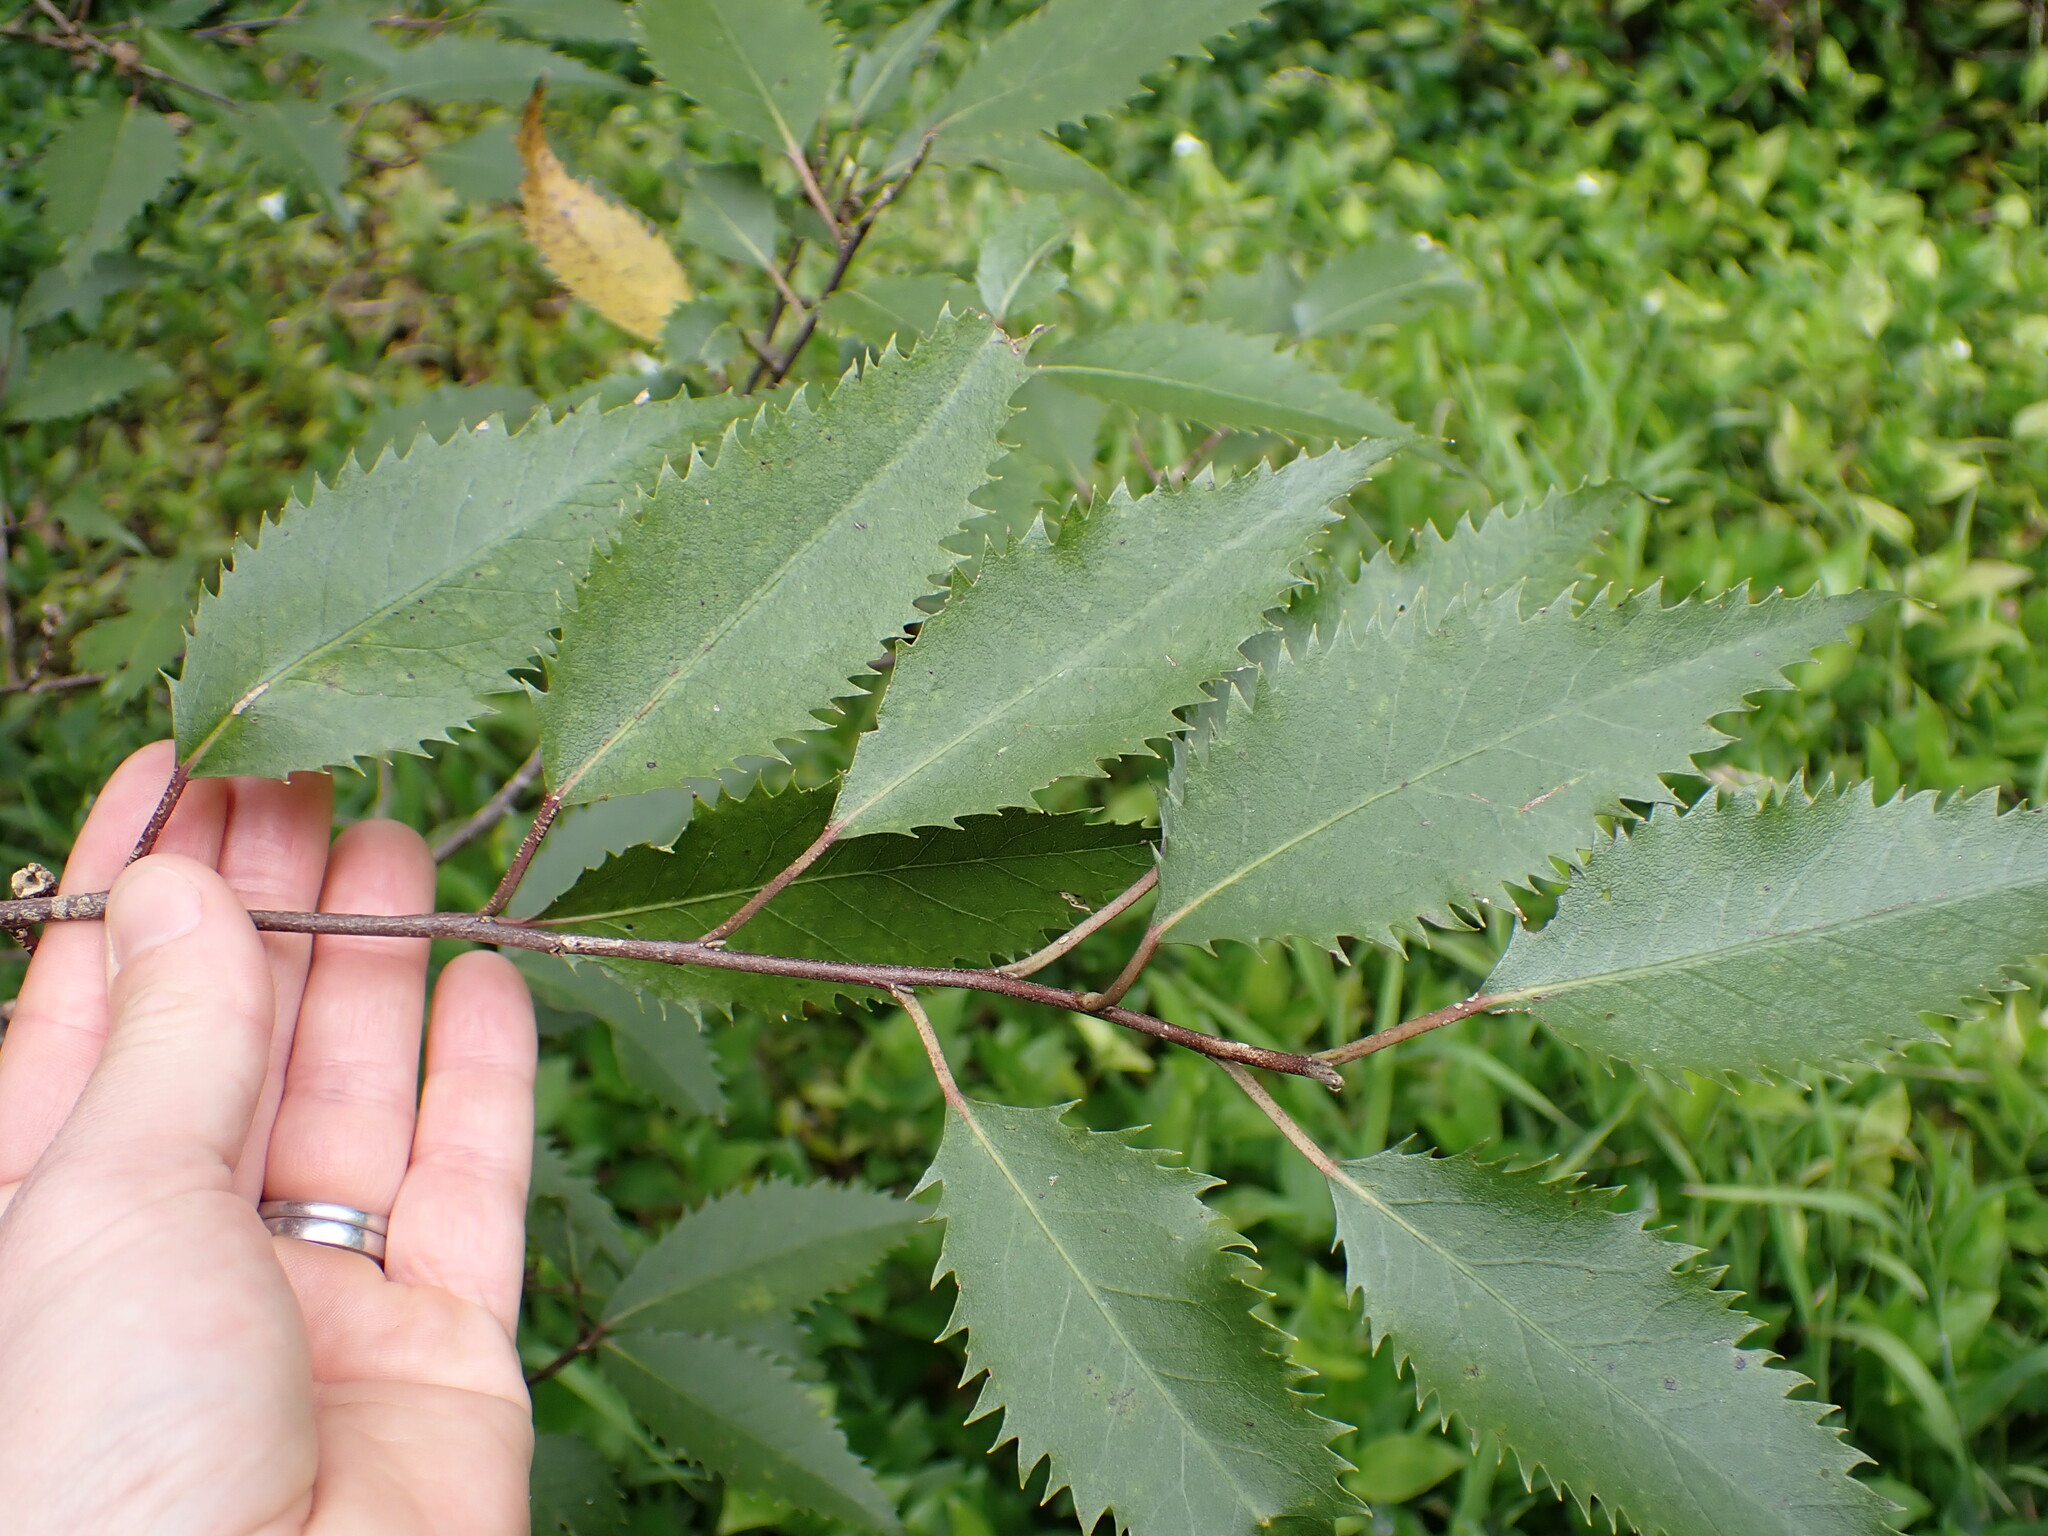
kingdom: Plantae
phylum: Tracheophyta
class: Magnoliopsida
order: Malvales
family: Malvaceae
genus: Hoheria
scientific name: Hoheria sexstylosa
